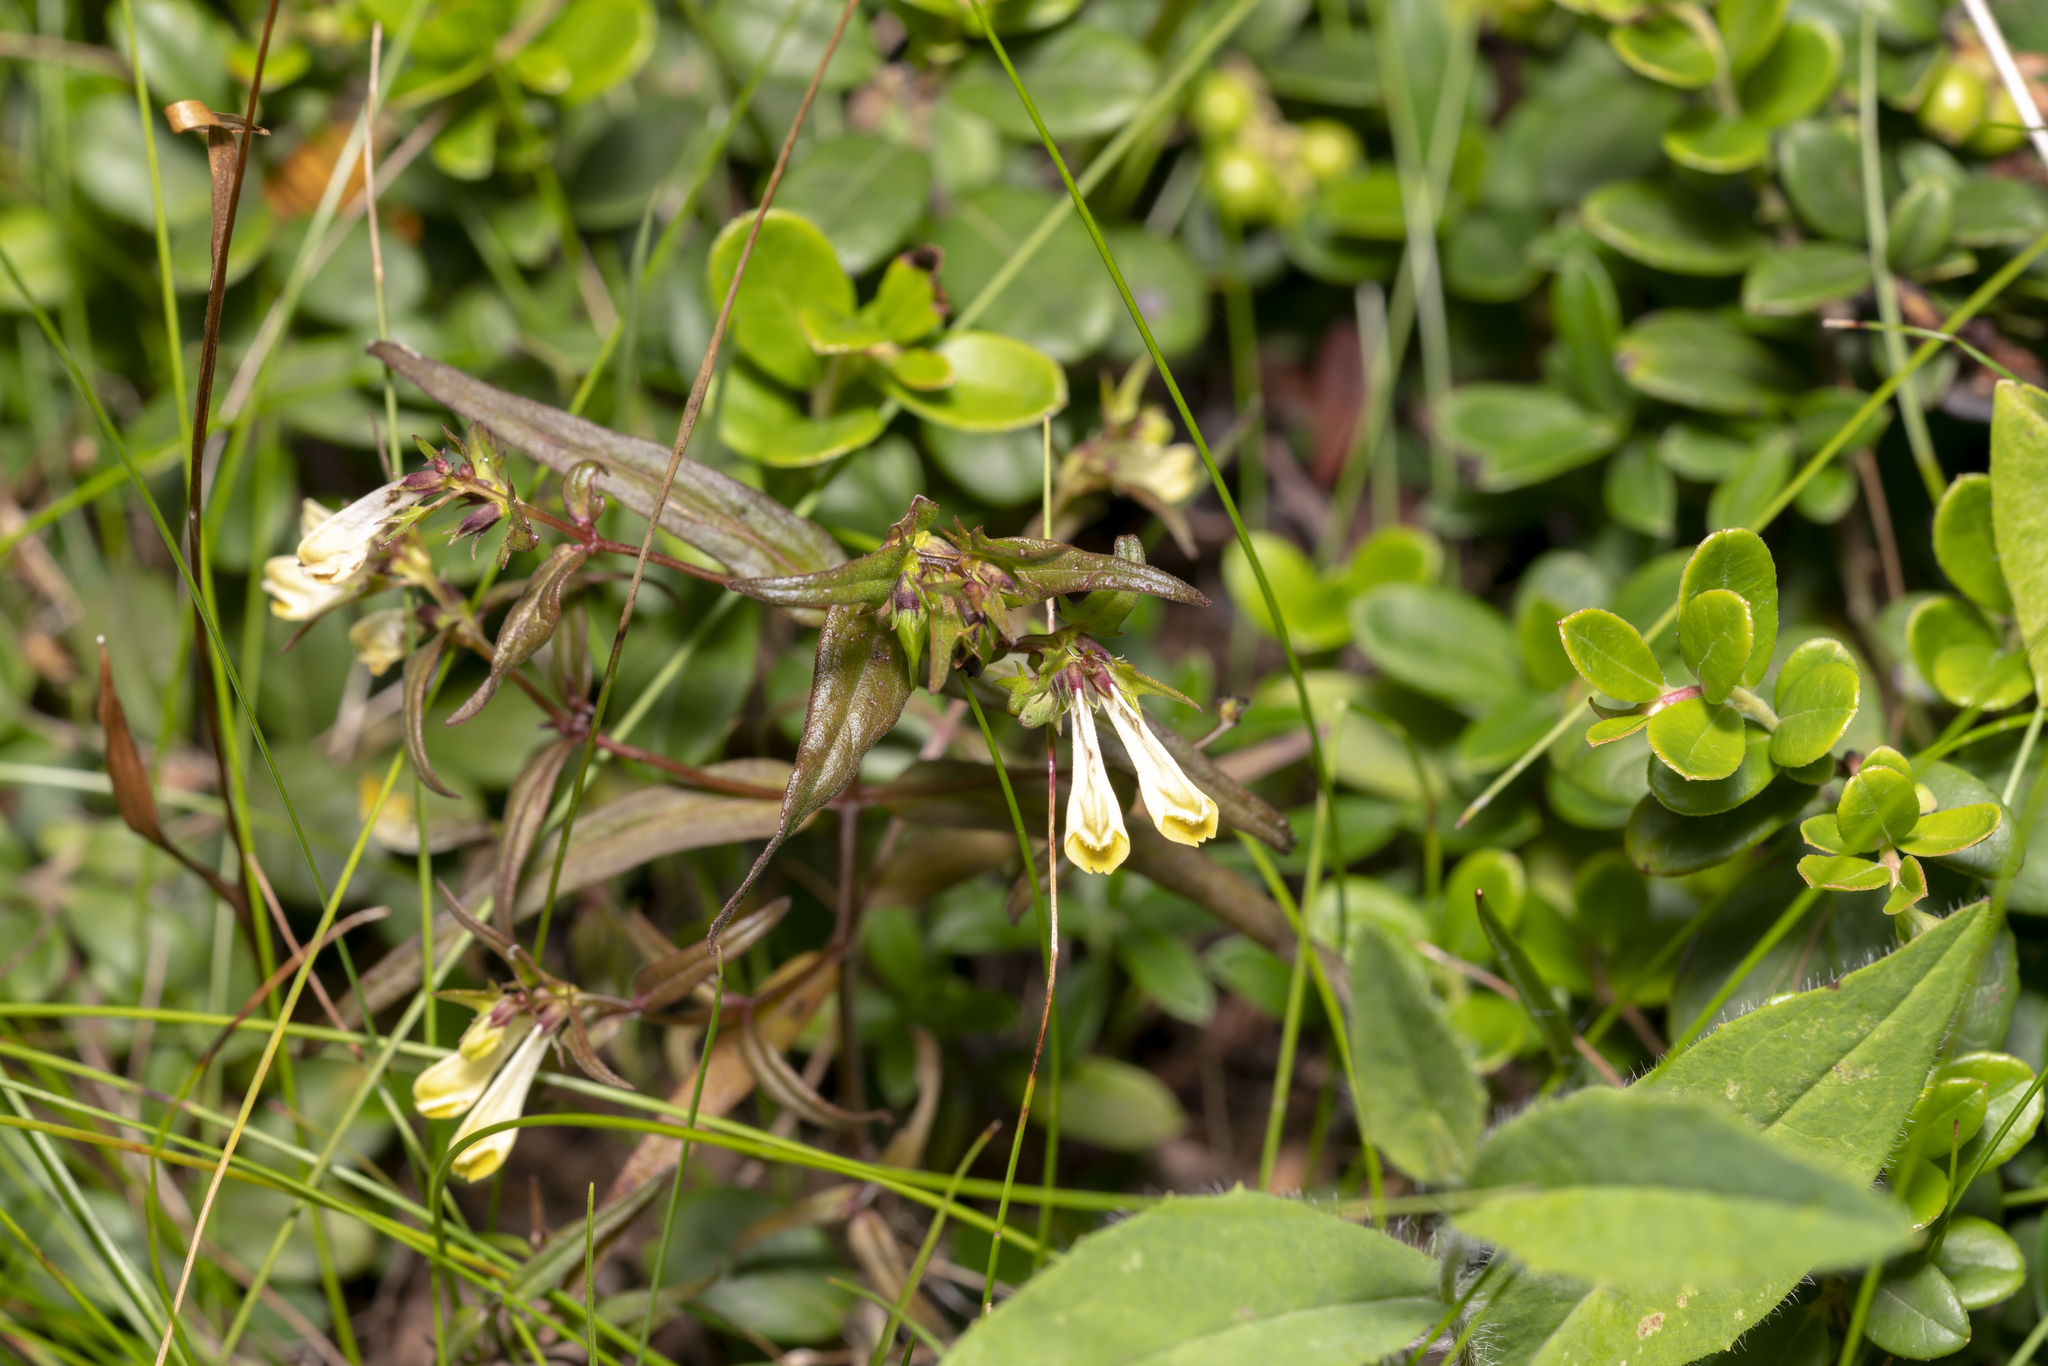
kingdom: Plantae
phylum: Tracheophyta
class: Magnoliopsida
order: Lamiales
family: Orobanchaceae
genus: Melampyrum
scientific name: Melampyrum pratense
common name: Common cow-wheat
